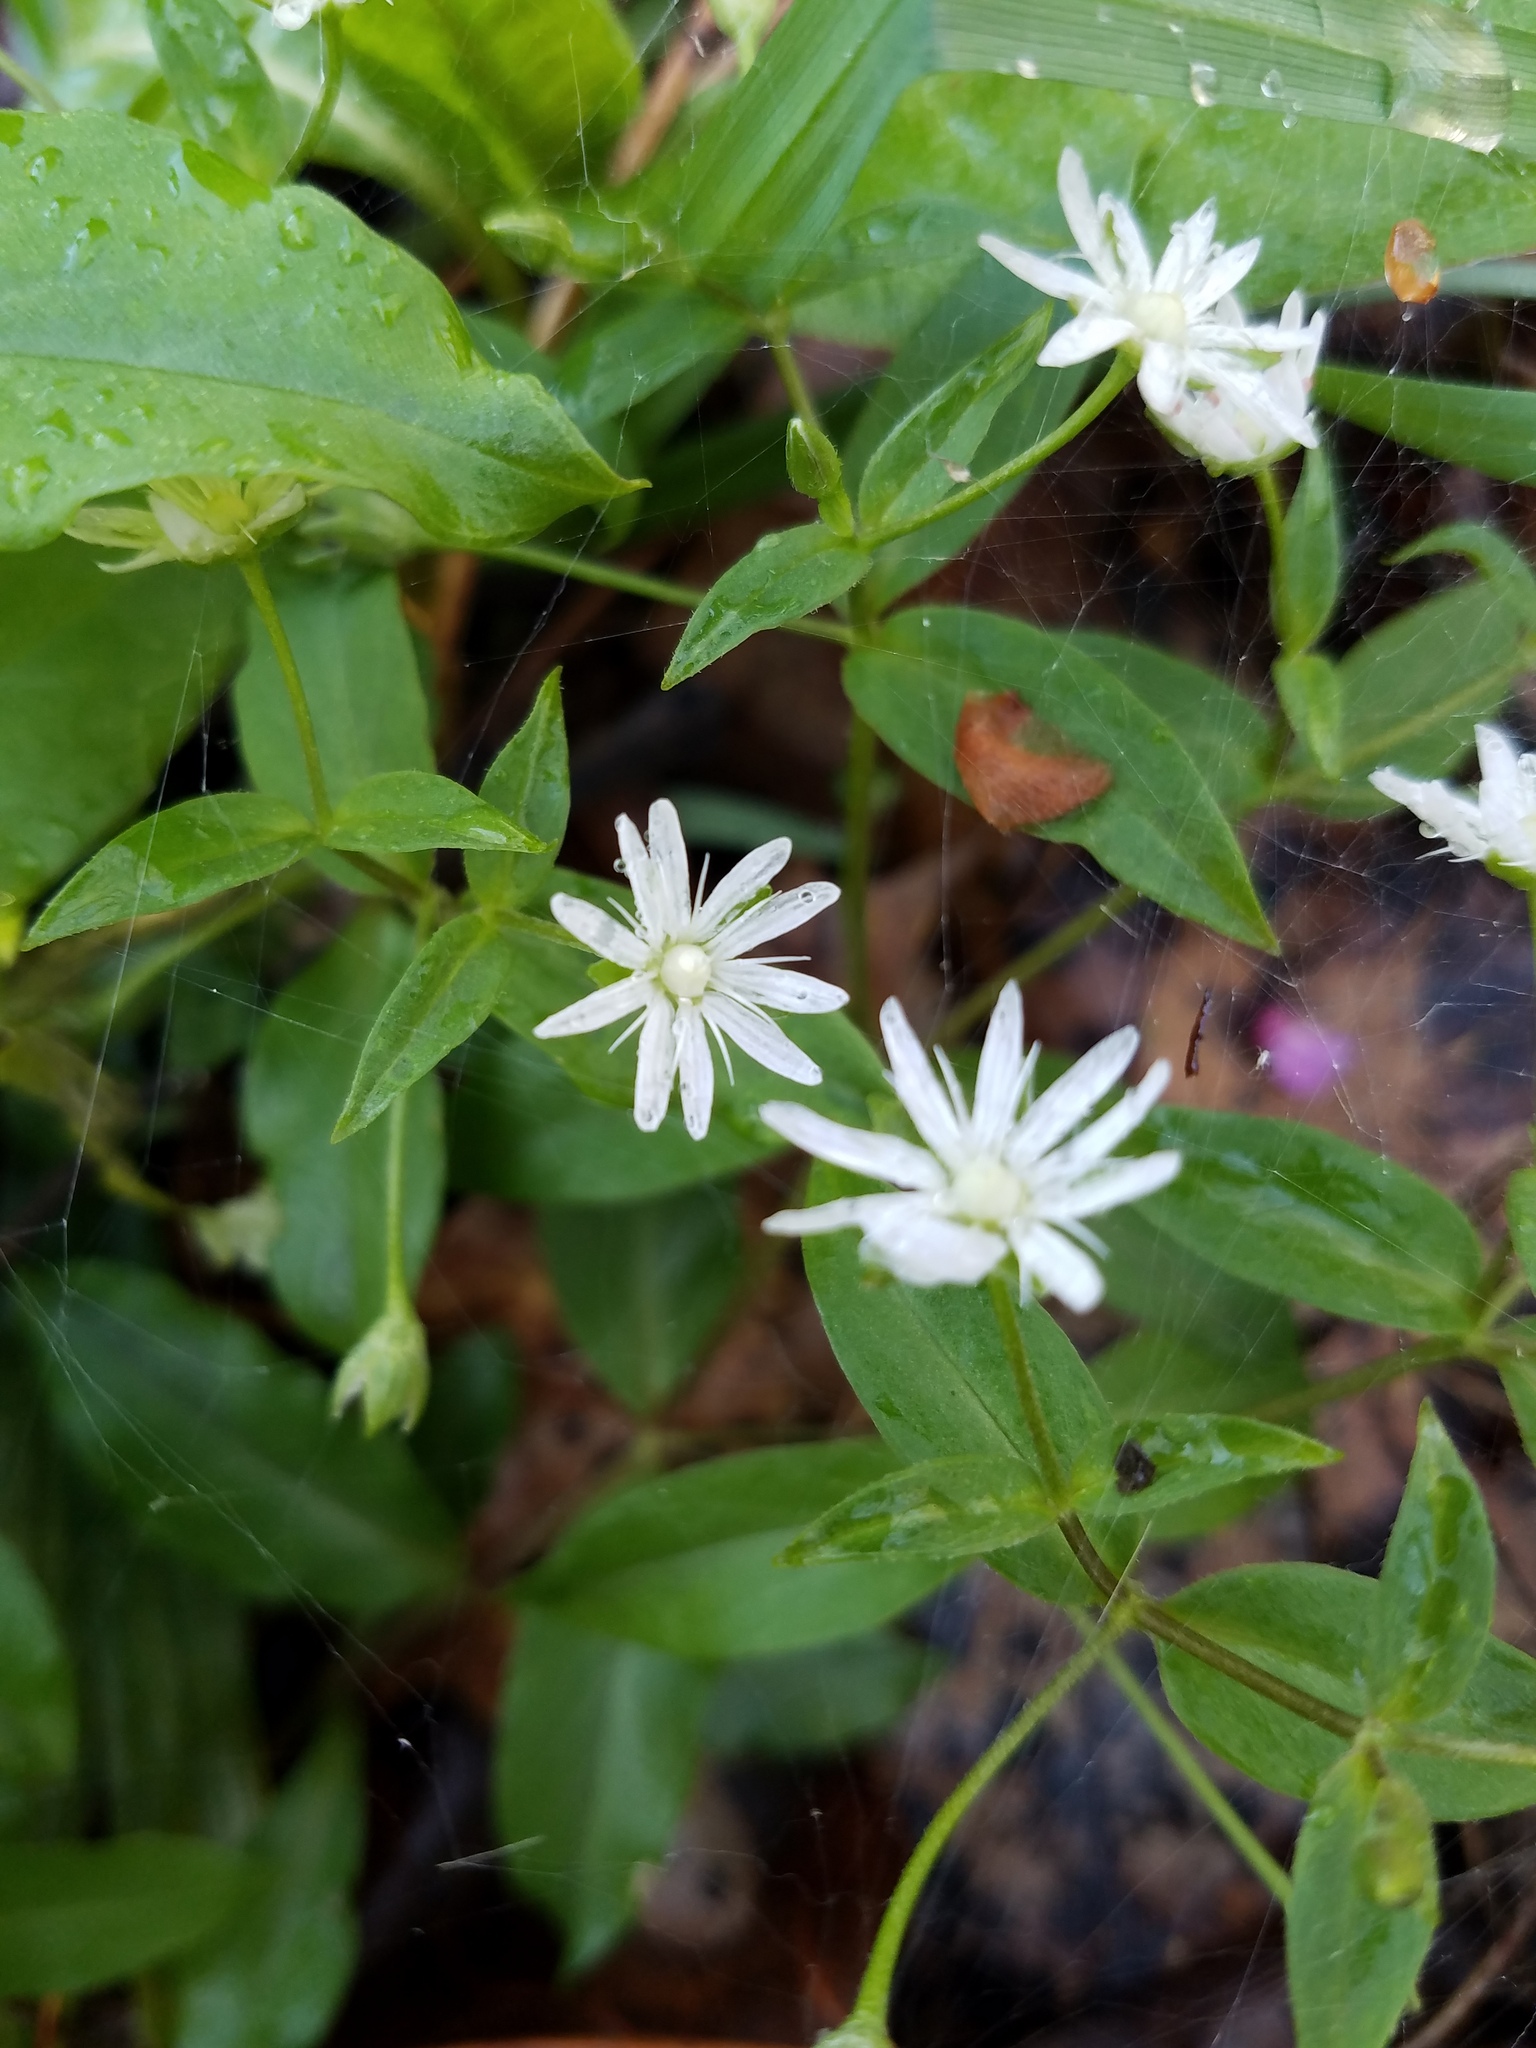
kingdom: Plantae
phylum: Tracheophyta
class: Magnoliopsida
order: Caryophyllales
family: Caryophyllaceae
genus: Stellaria
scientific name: Stellaria pubera
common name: Star chickweed
